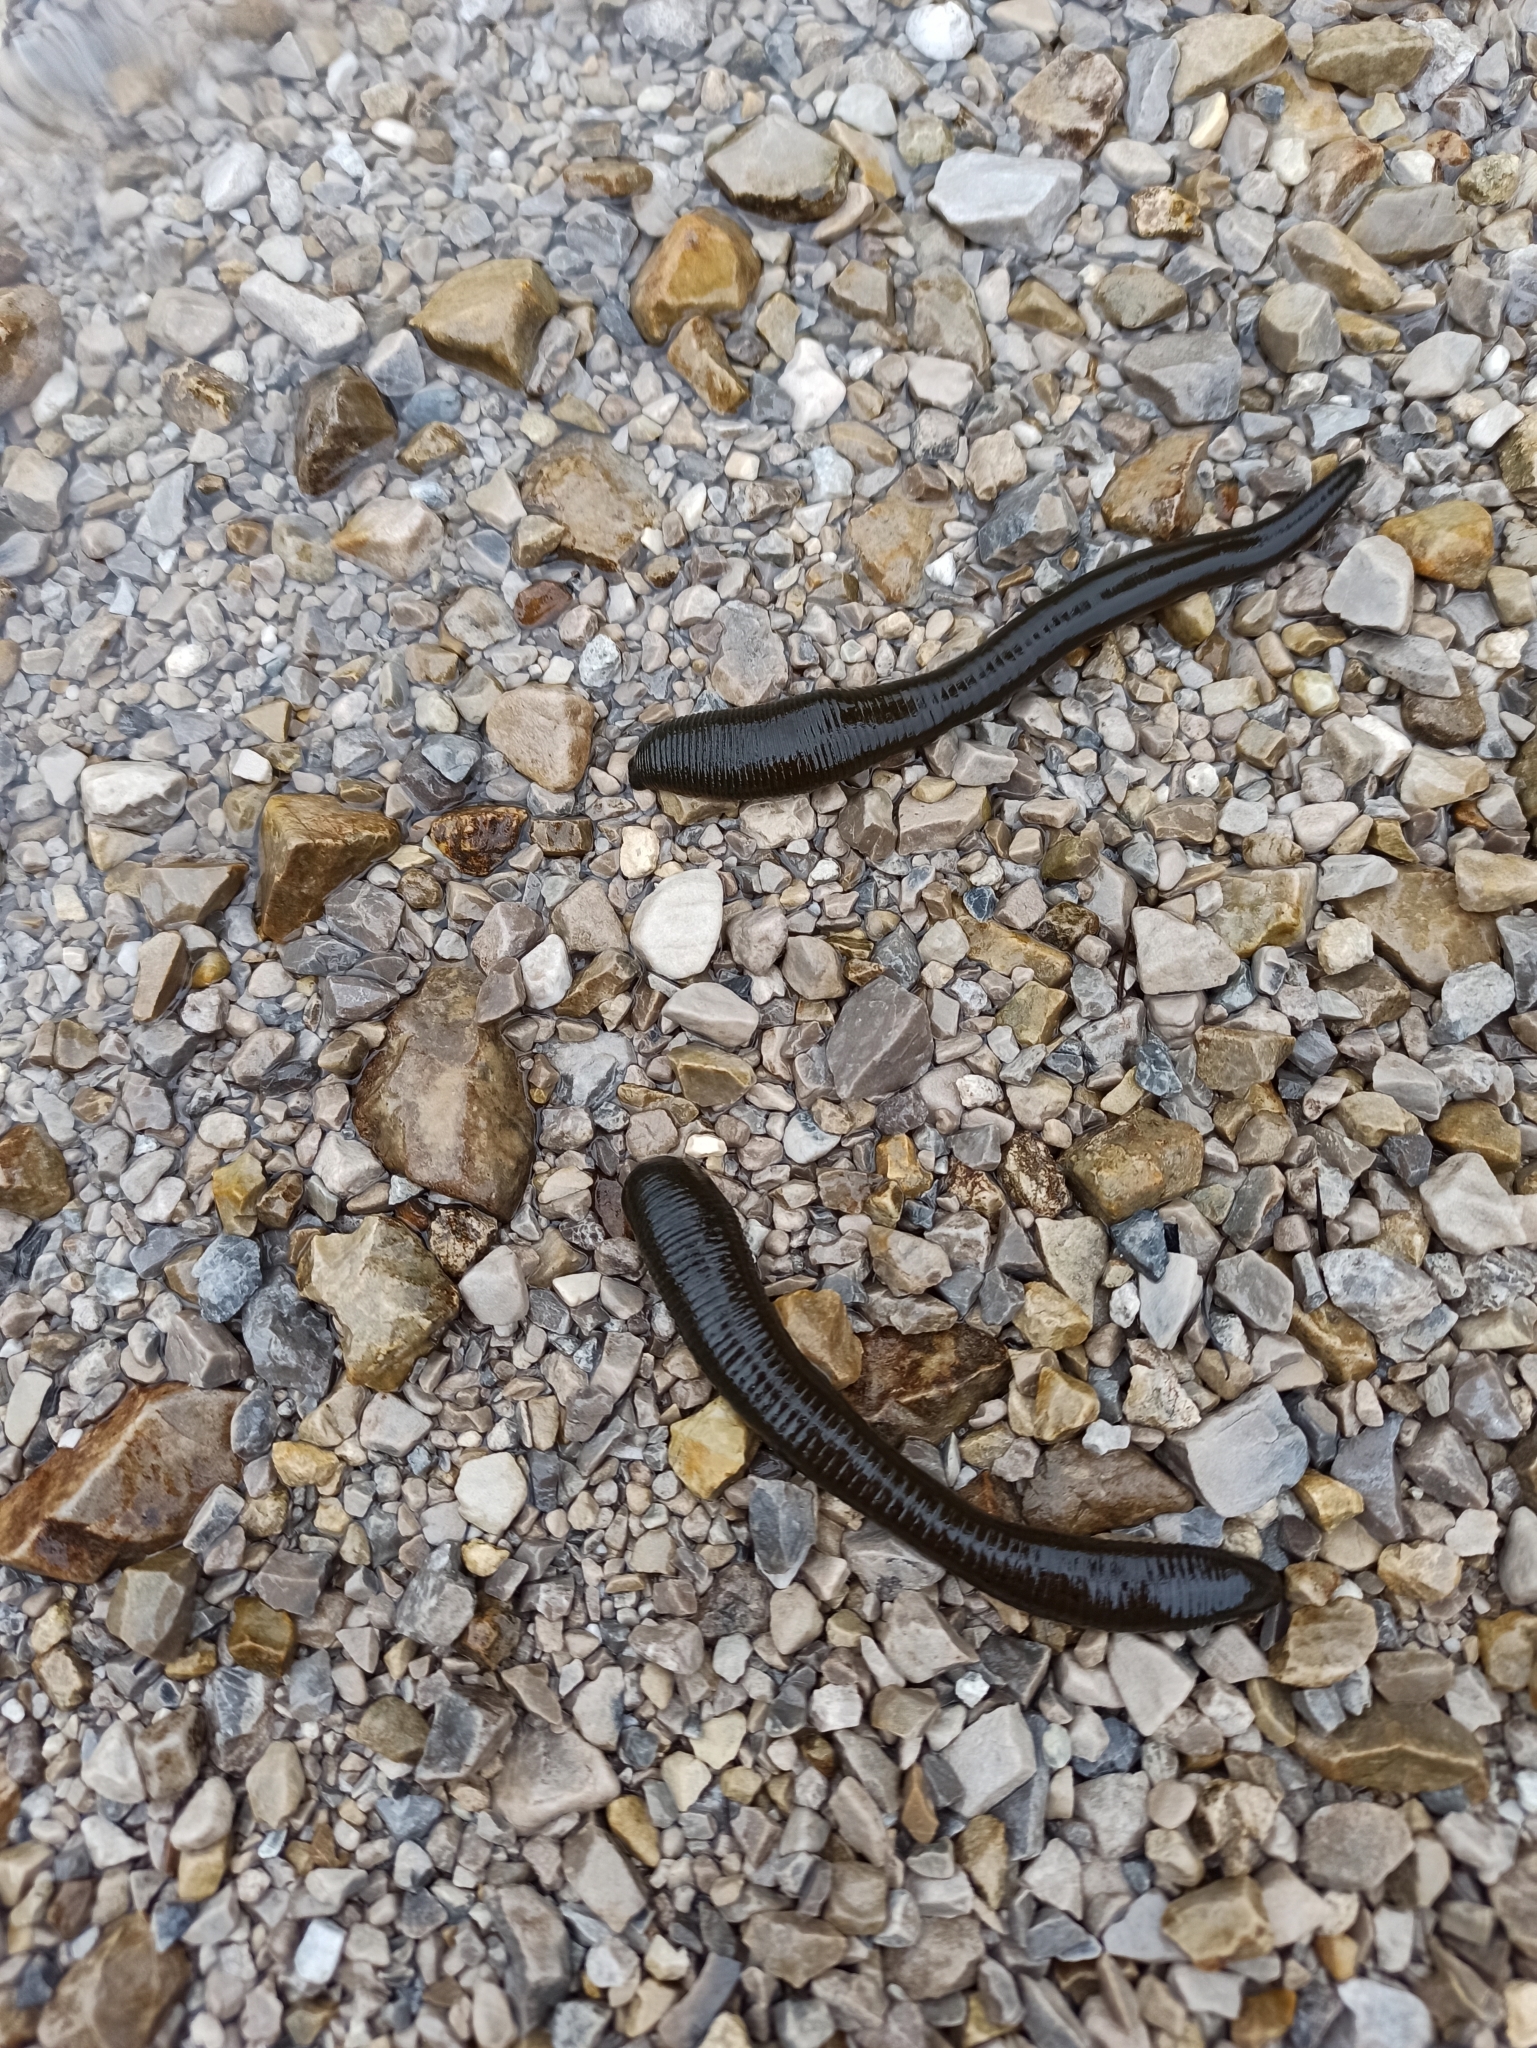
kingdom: Animalia
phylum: Annelida
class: Clitellata
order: Arhynchobdellida
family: Haemopidae
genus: Haemopis
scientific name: Haemopis sanguisuga
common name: Horse leech
